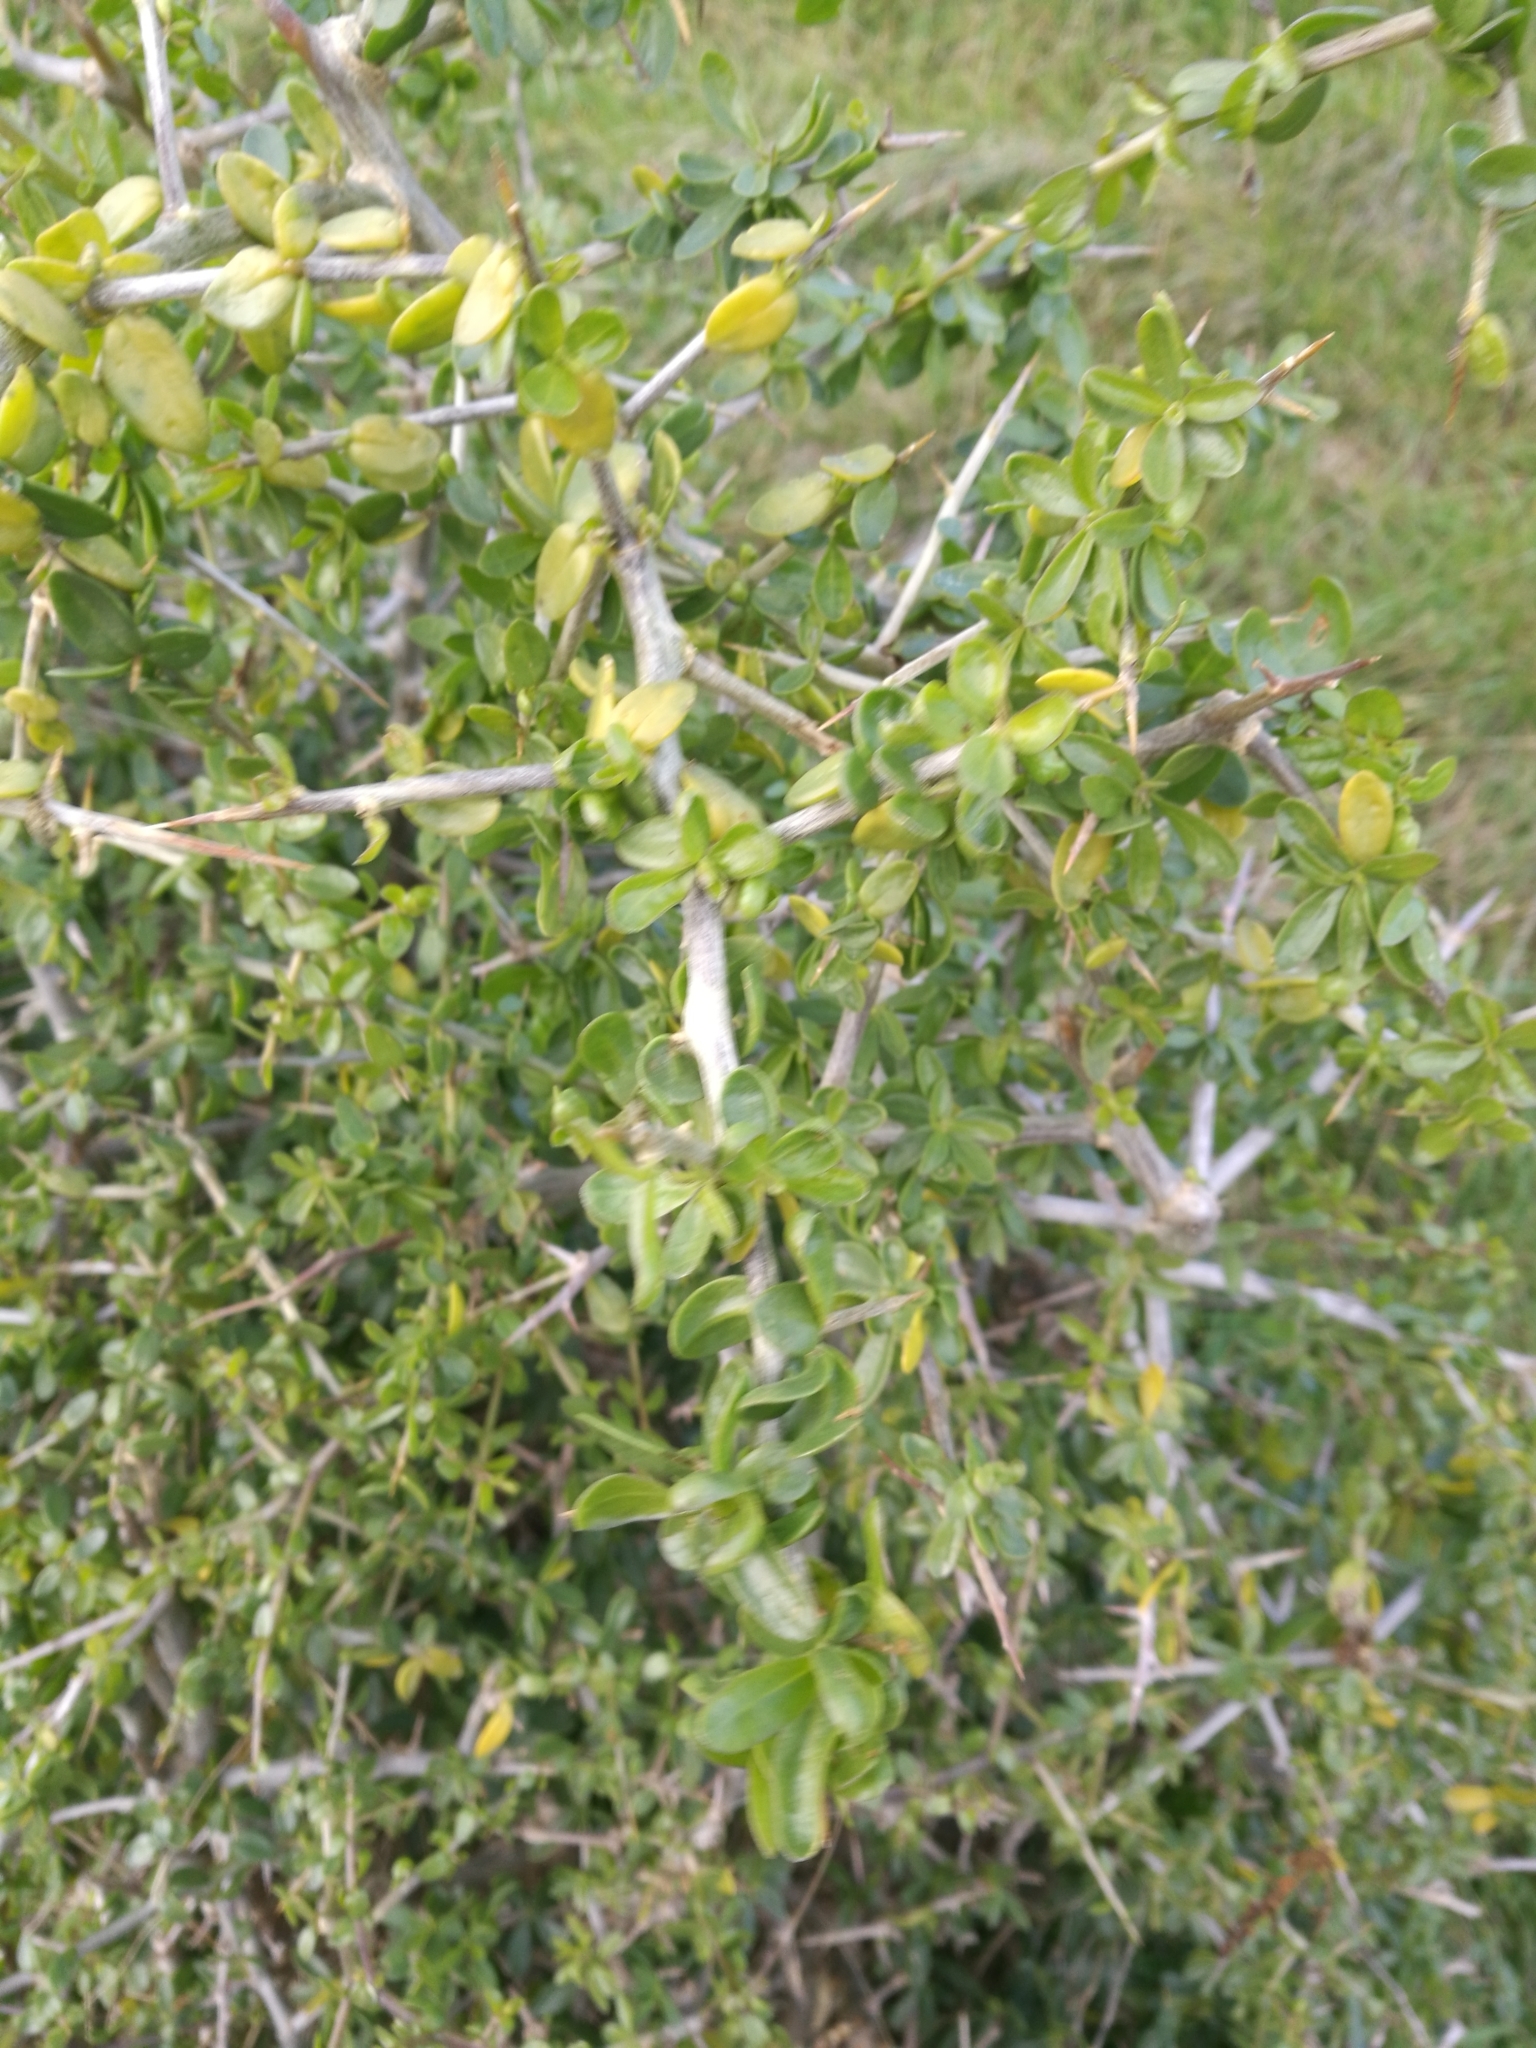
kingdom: Plantae
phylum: Tracheophyta
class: Magnoliopsida
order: Solanales
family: Solanaceae
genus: Lycium
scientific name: Lycium ferocissimum
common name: African boxthorn
